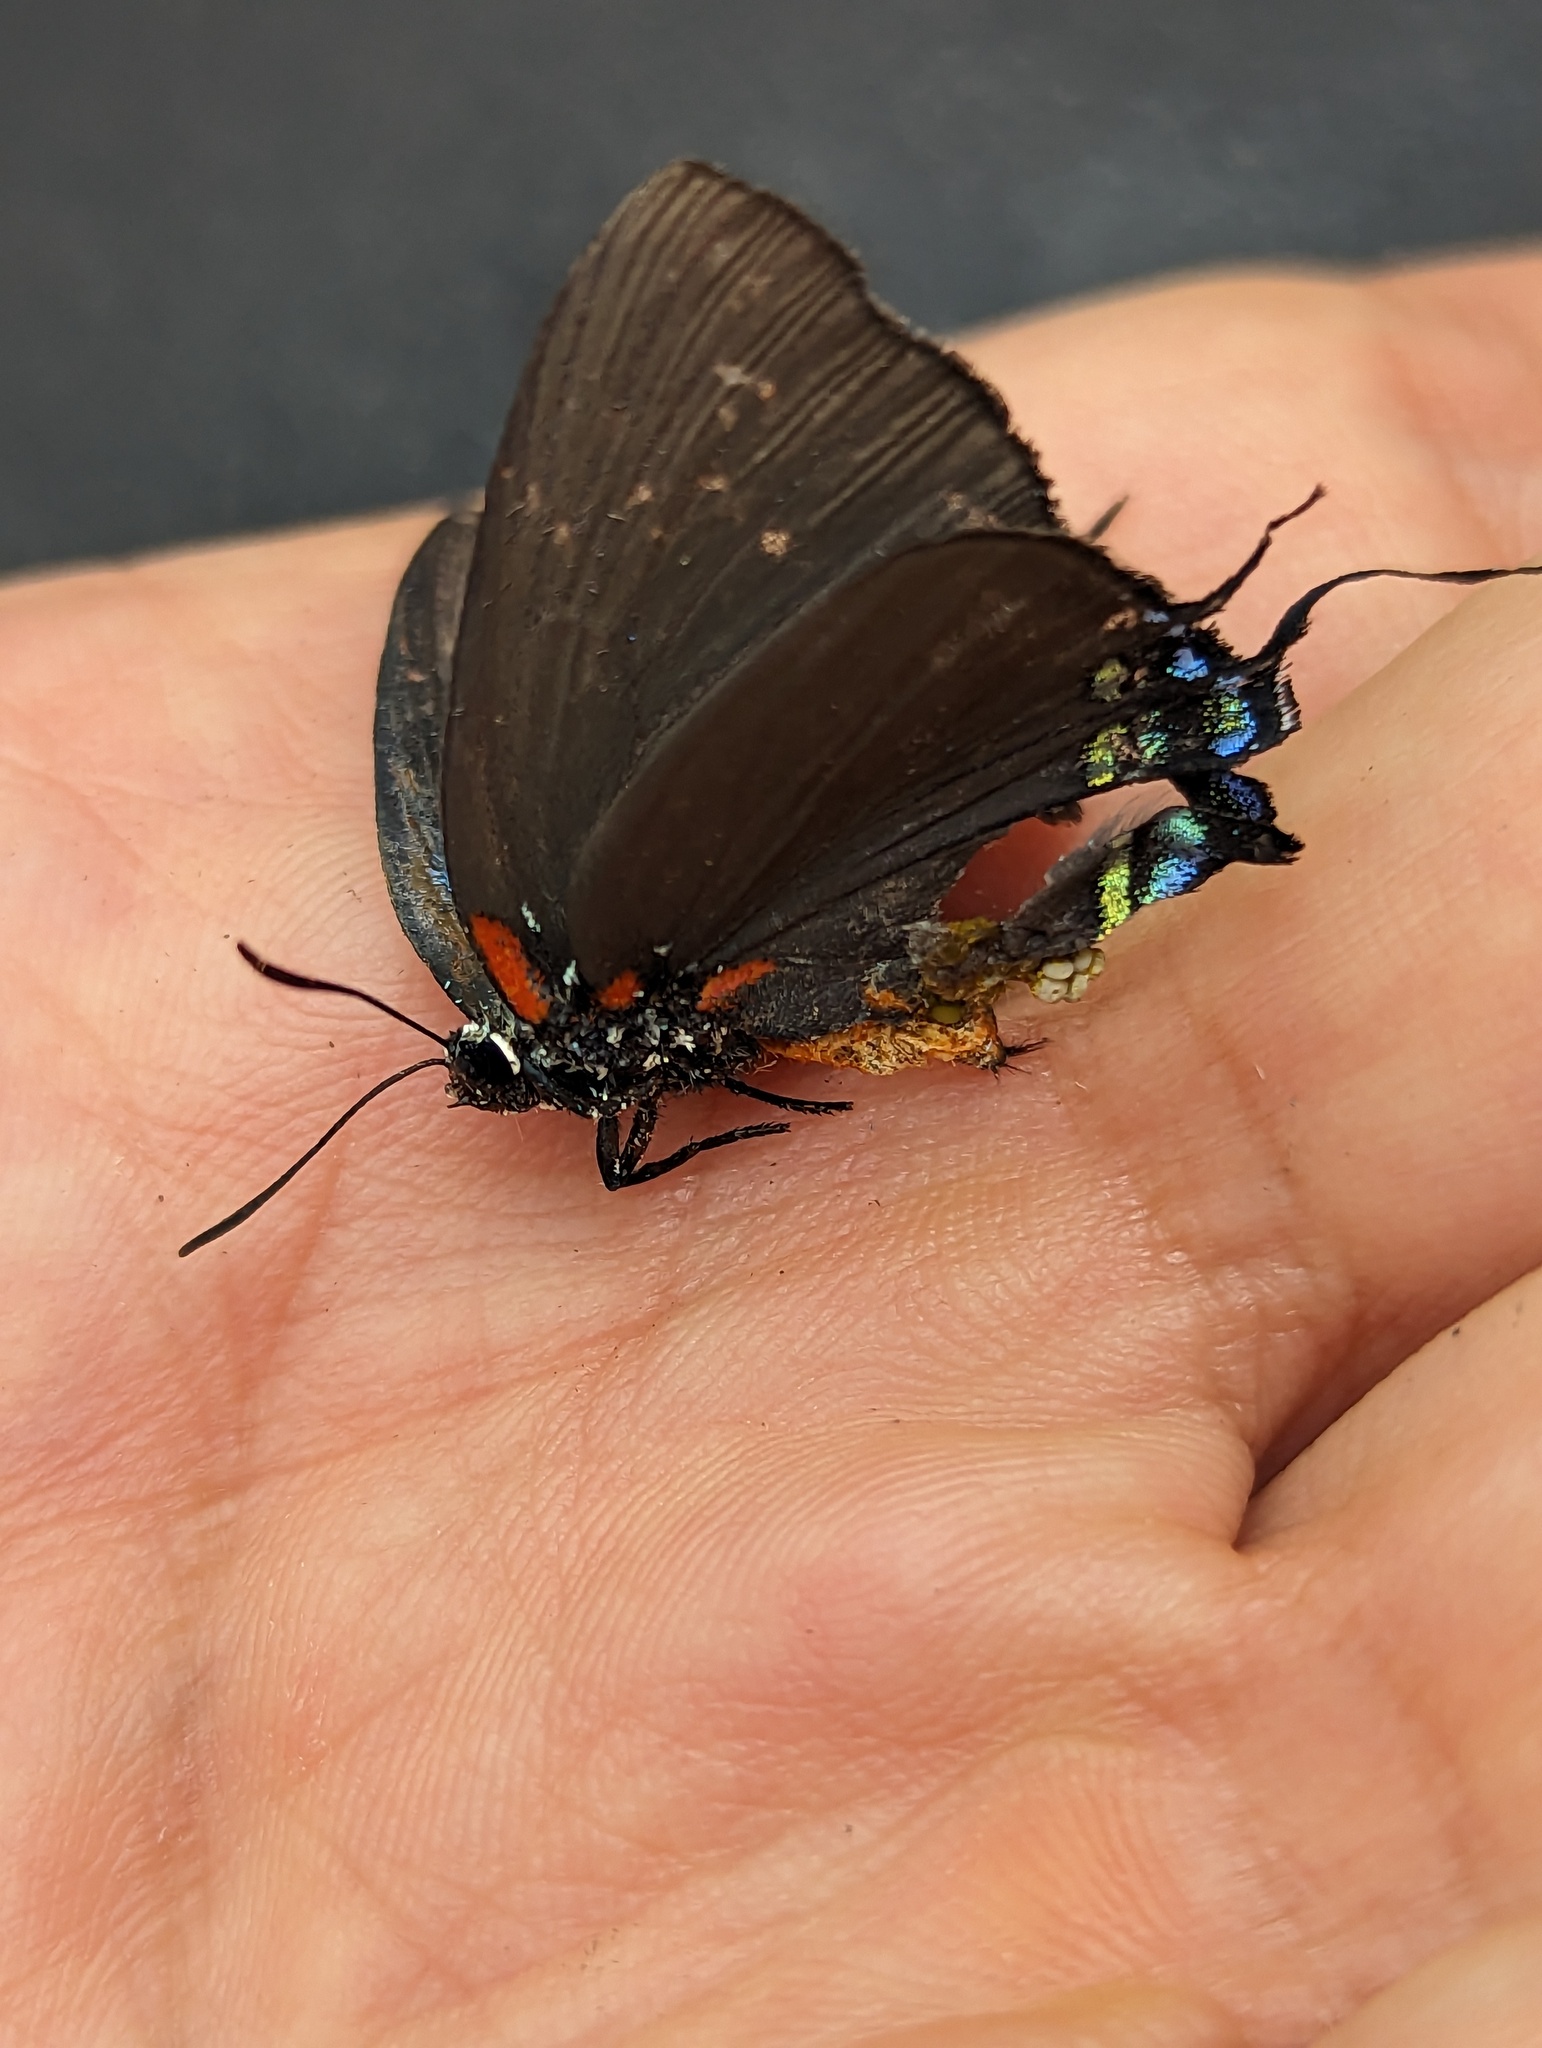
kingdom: Animalia
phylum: Arthropoda
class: Insecta
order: Lepidoptera
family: Lycaenidae
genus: Atlides
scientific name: Atlides halesus
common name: Great purple hairstreak
